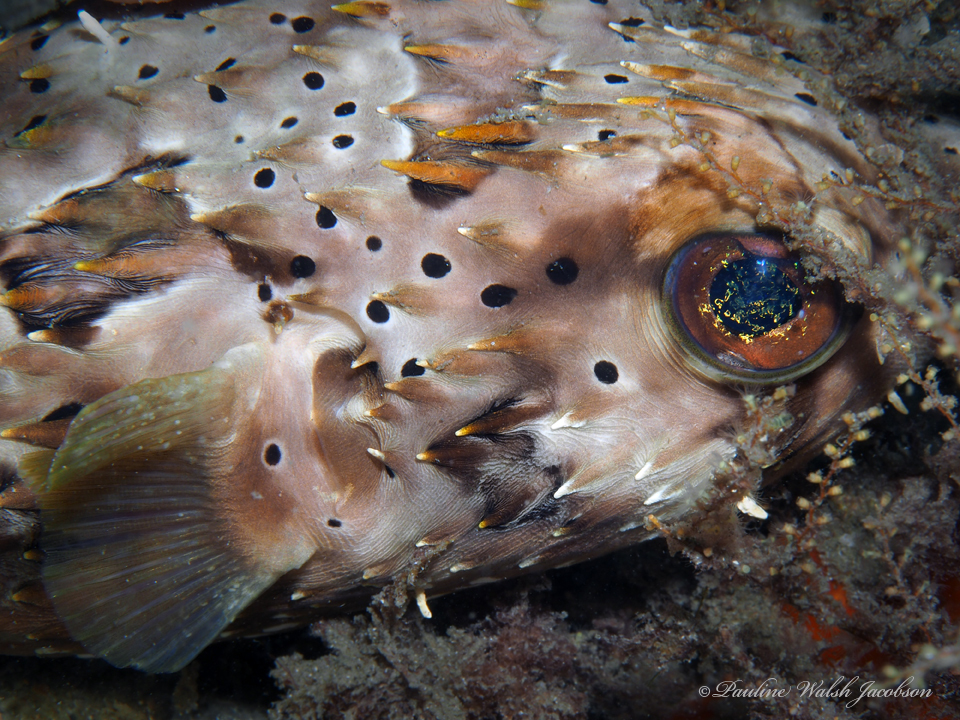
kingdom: Animalia
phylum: Chordata
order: Tetraodontiformes
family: Diodontidae
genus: Diodon
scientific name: Diodon holocanthus
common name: Balloonfish
